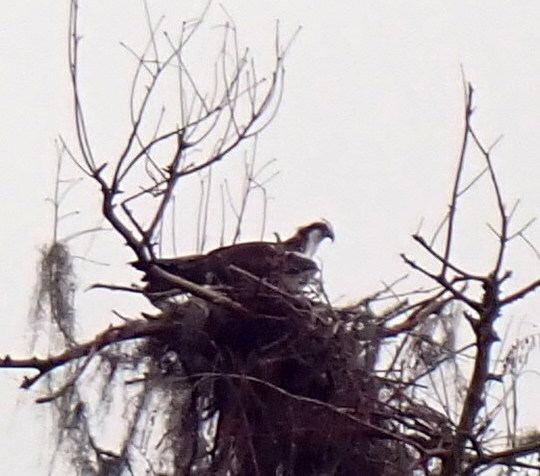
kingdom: Animalia
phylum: Chordata
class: Aves
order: Accipitriformes
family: Pandionidae
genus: Pandion
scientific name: Pandion haliaetus
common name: Osprey
